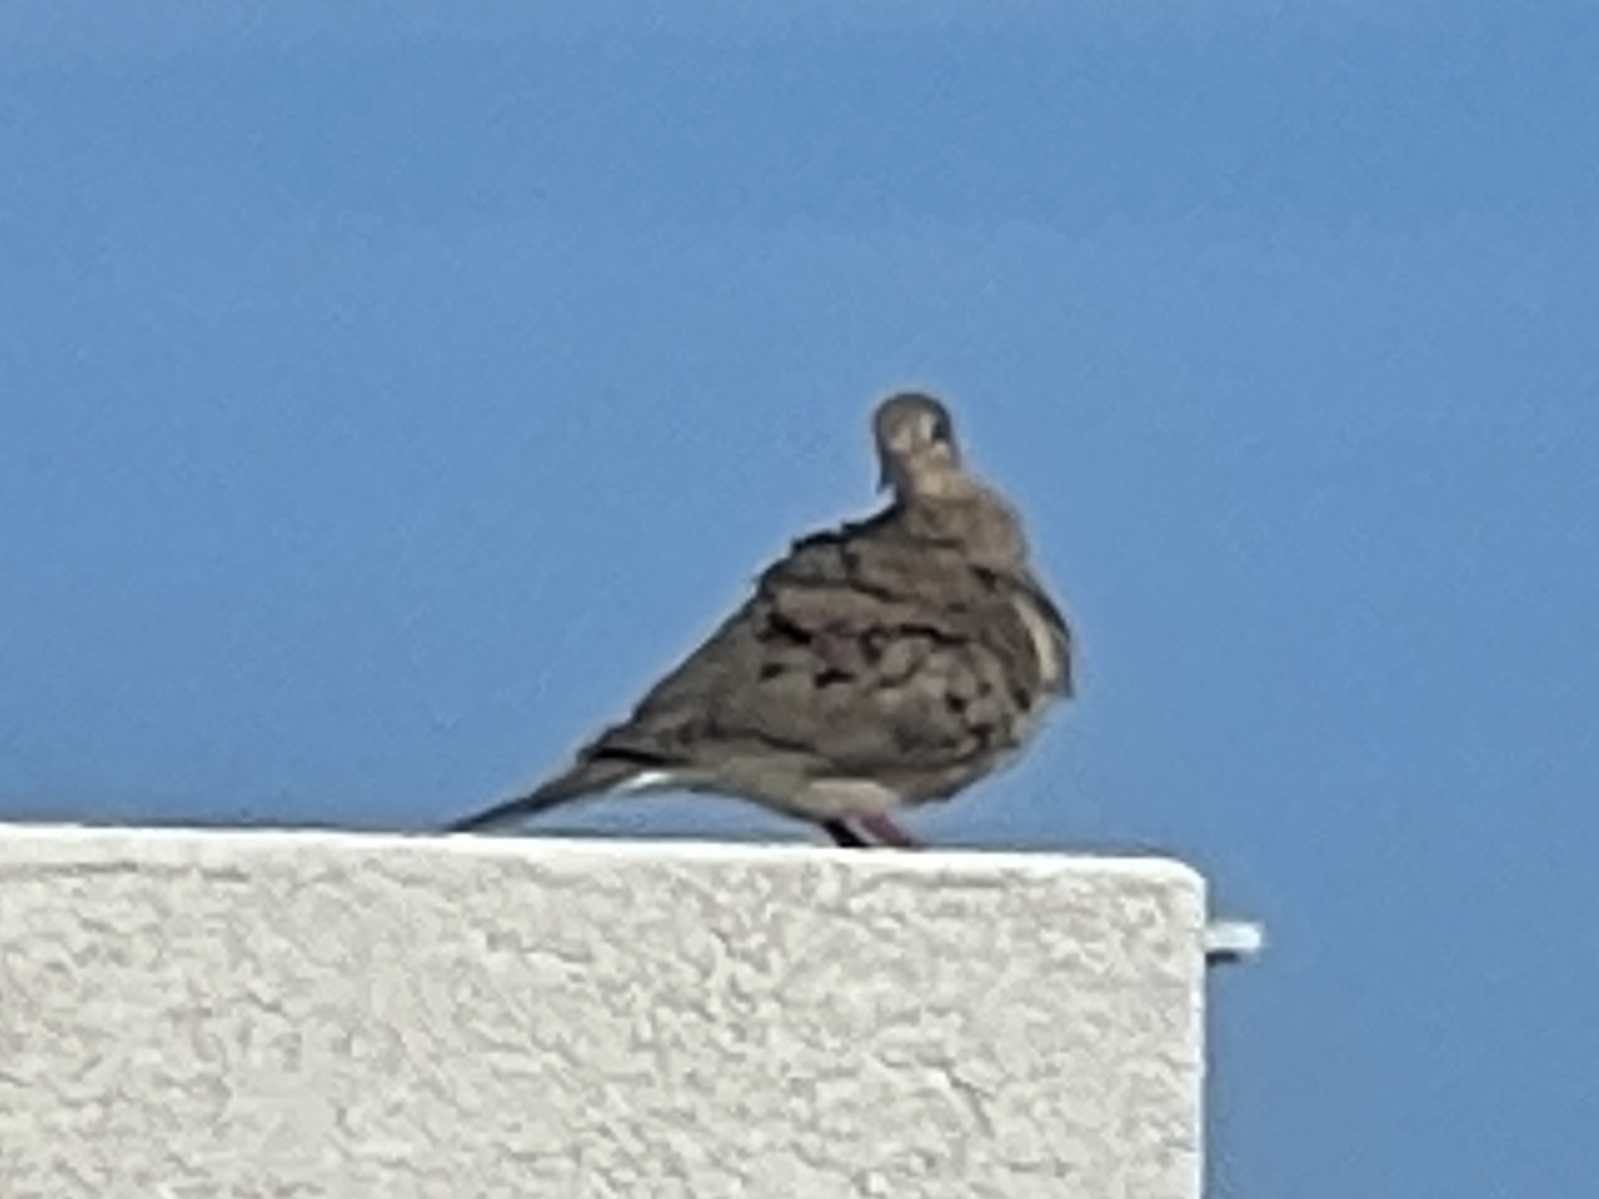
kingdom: Animalia
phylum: Chordata
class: Aves
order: Columbiformes
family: Columbidae
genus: Zenaida
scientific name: Zenaida macroura
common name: Mourning dove
